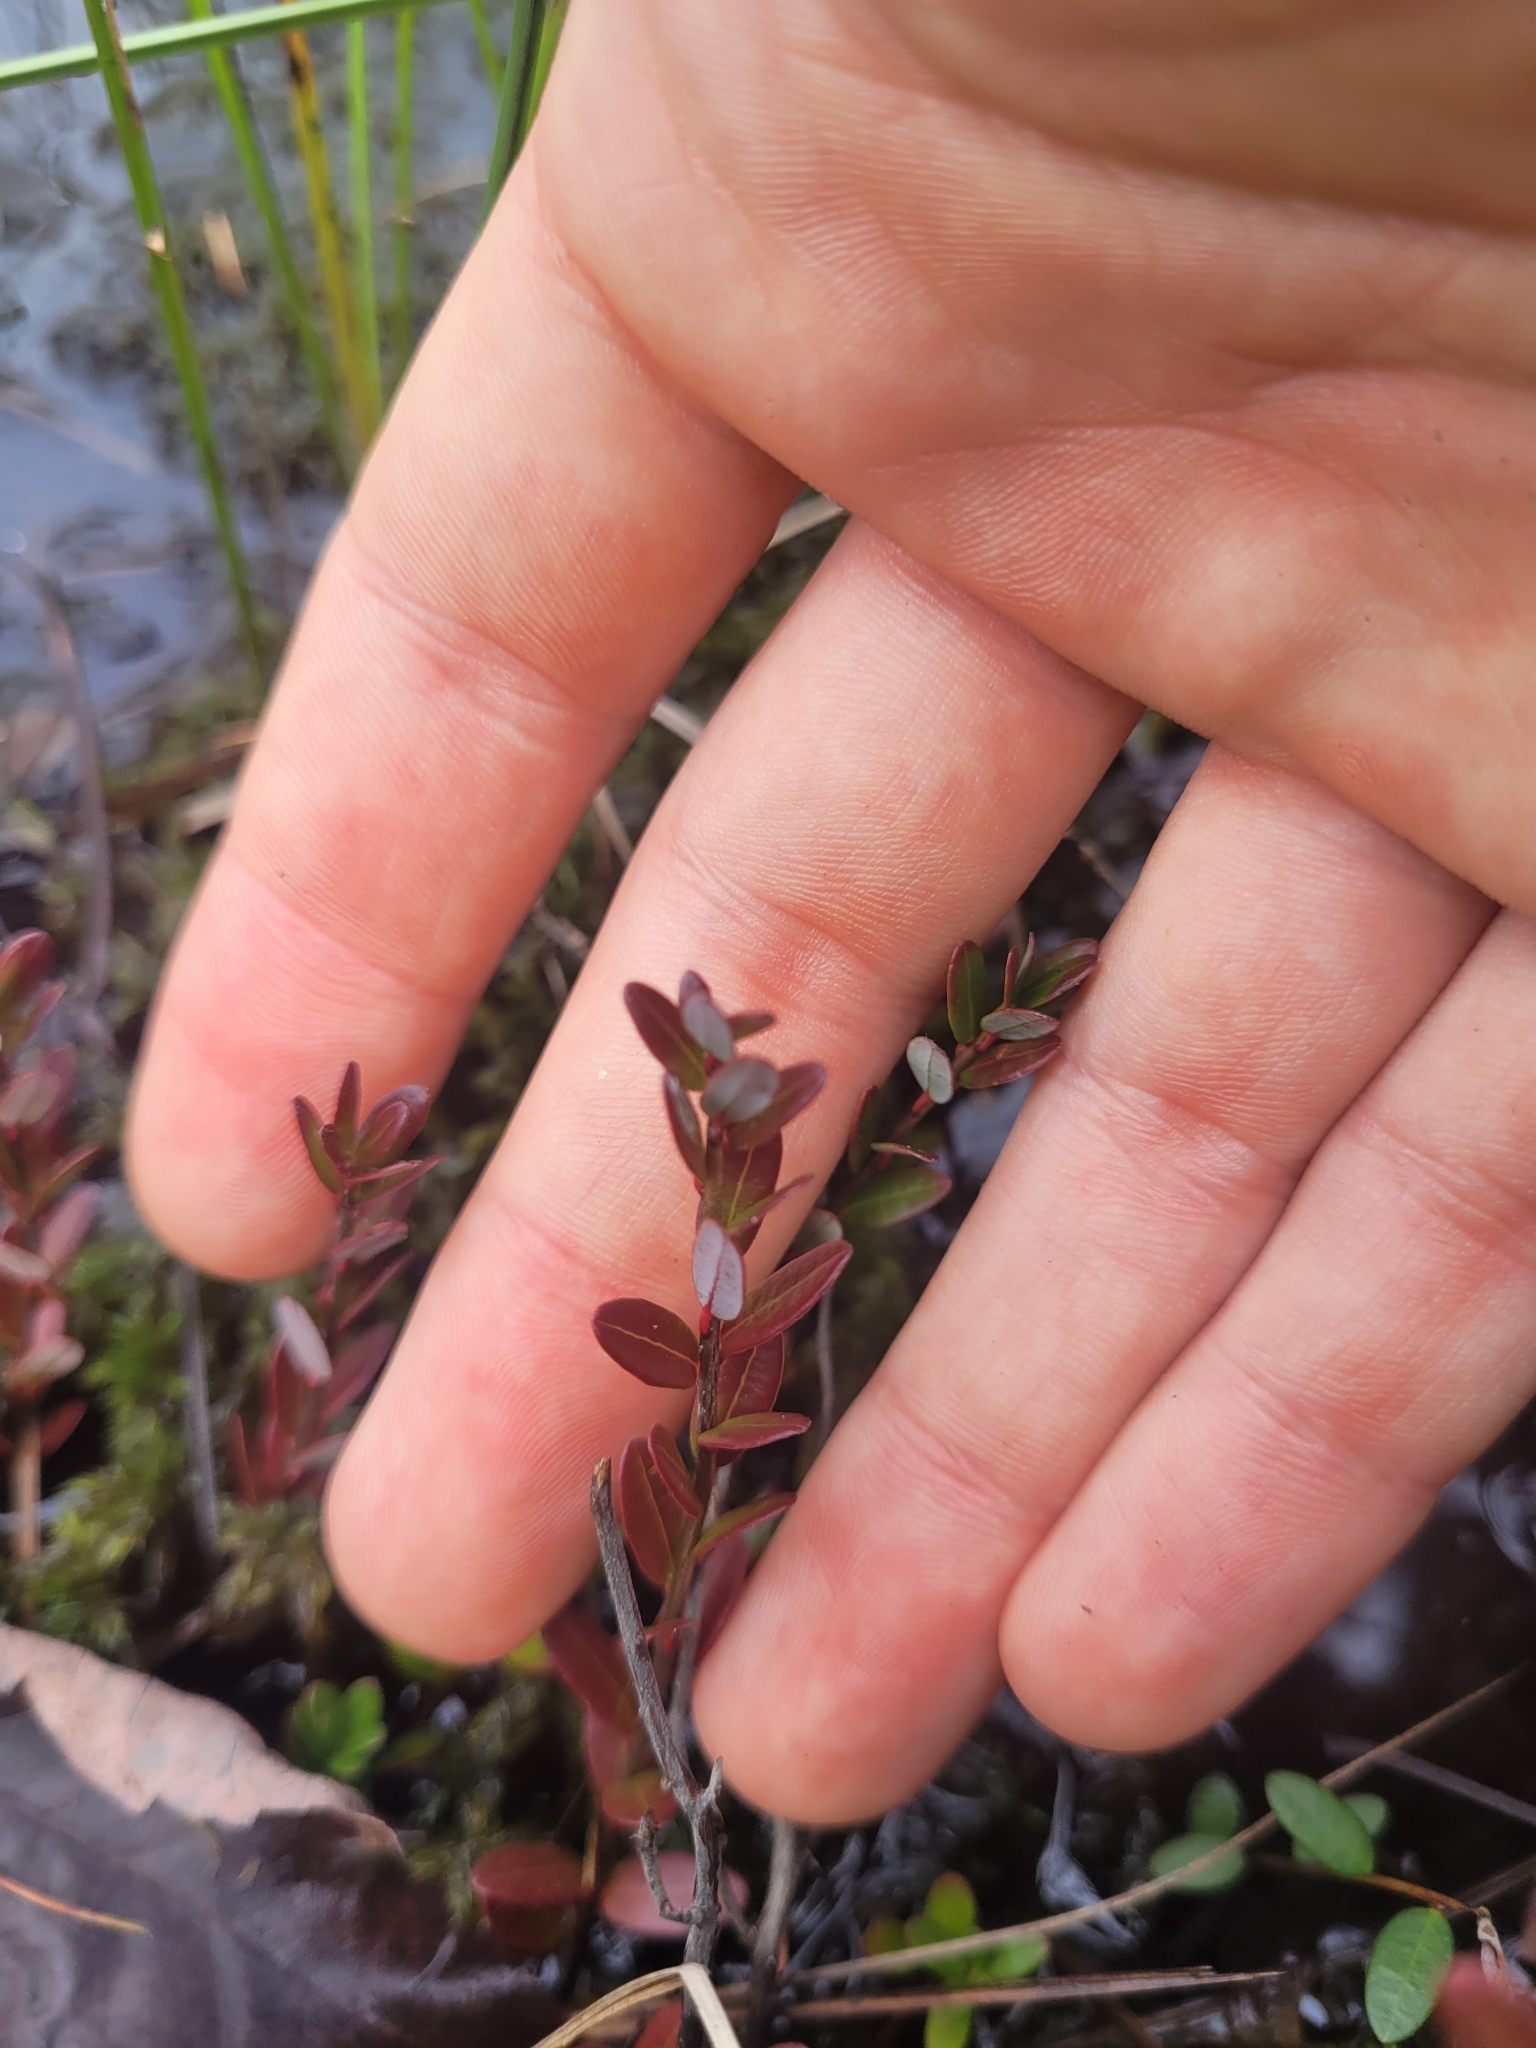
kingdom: Plantae
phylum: Tracheophyta
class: Magnoliopsida
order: Ericales
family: Ericaceae
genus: Vaccinium
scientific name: Vaccinium macrocarpon
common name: American cranberry
